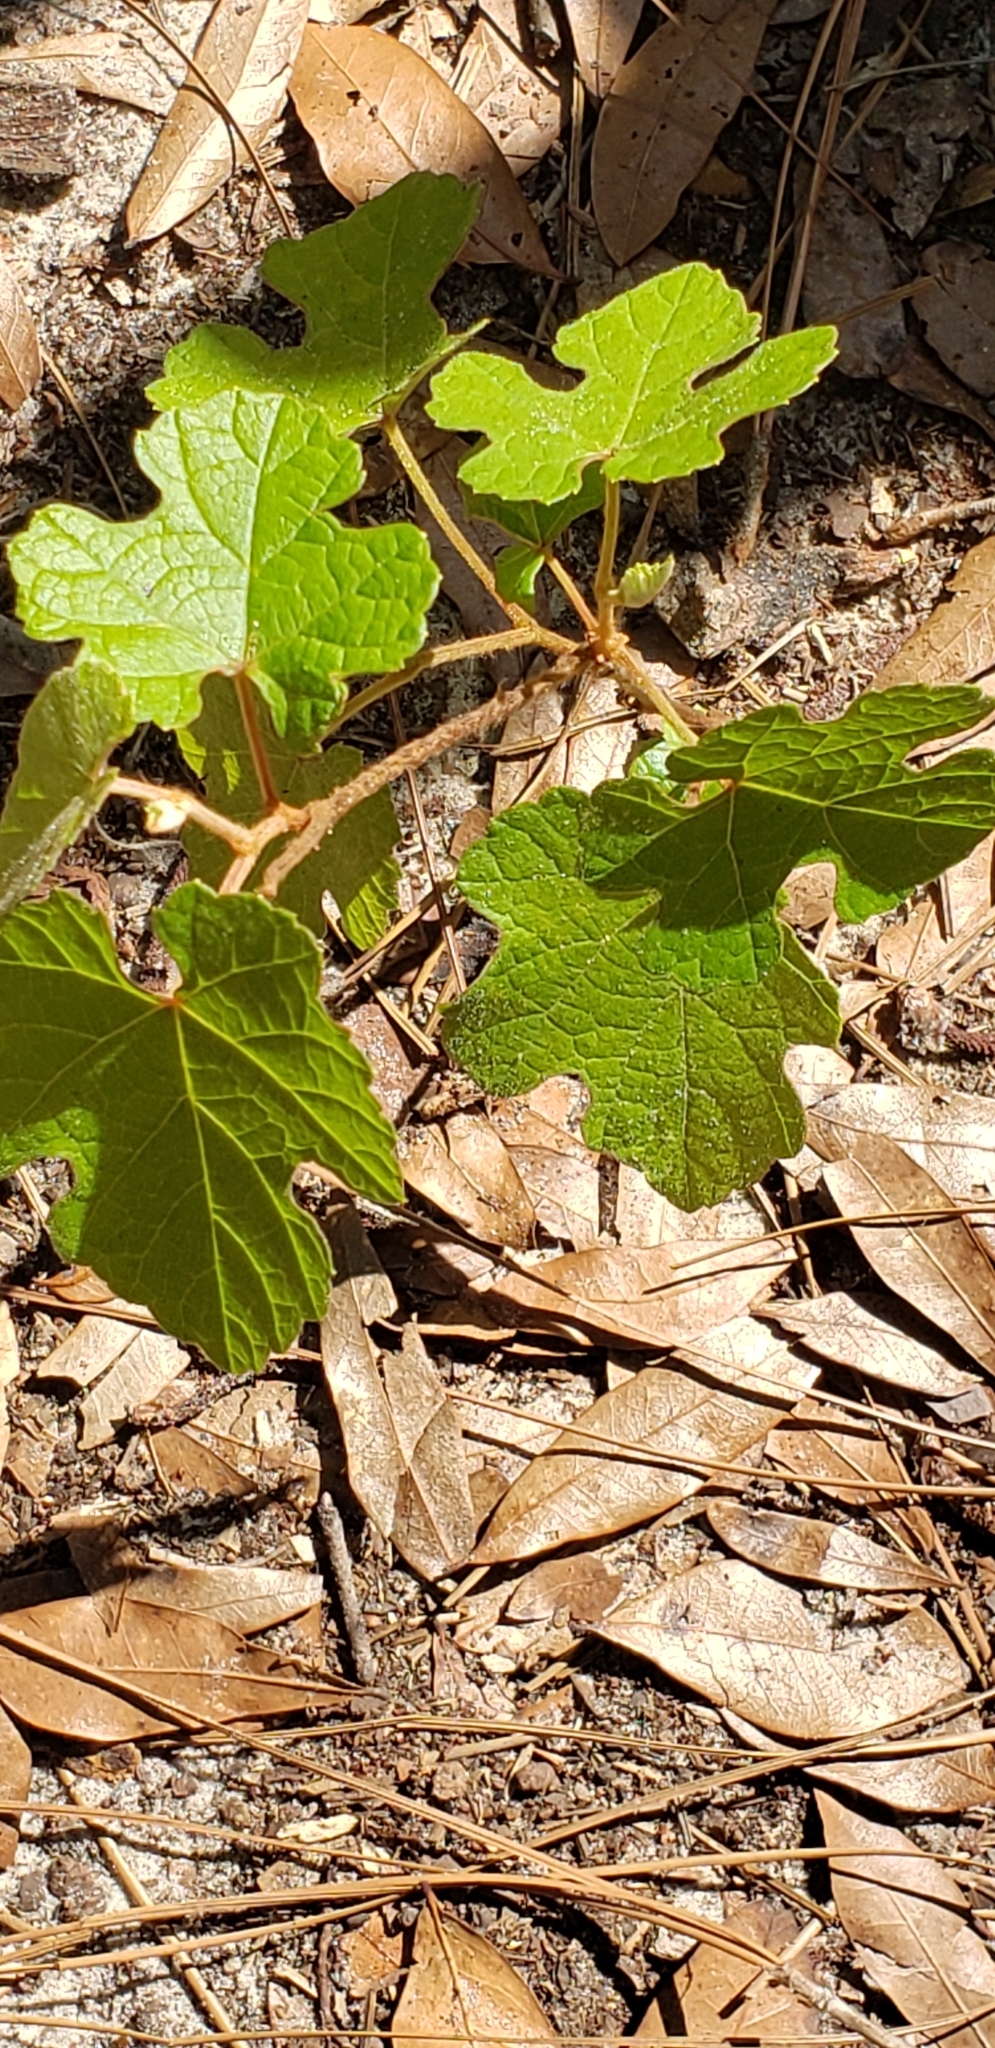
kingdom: Plantae
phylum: Tracheophyta
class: Magnoliopsida
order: Vitales
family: Vitaceae
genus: Vitis
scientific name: Vitis aestivalis
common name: Pigeon grape
